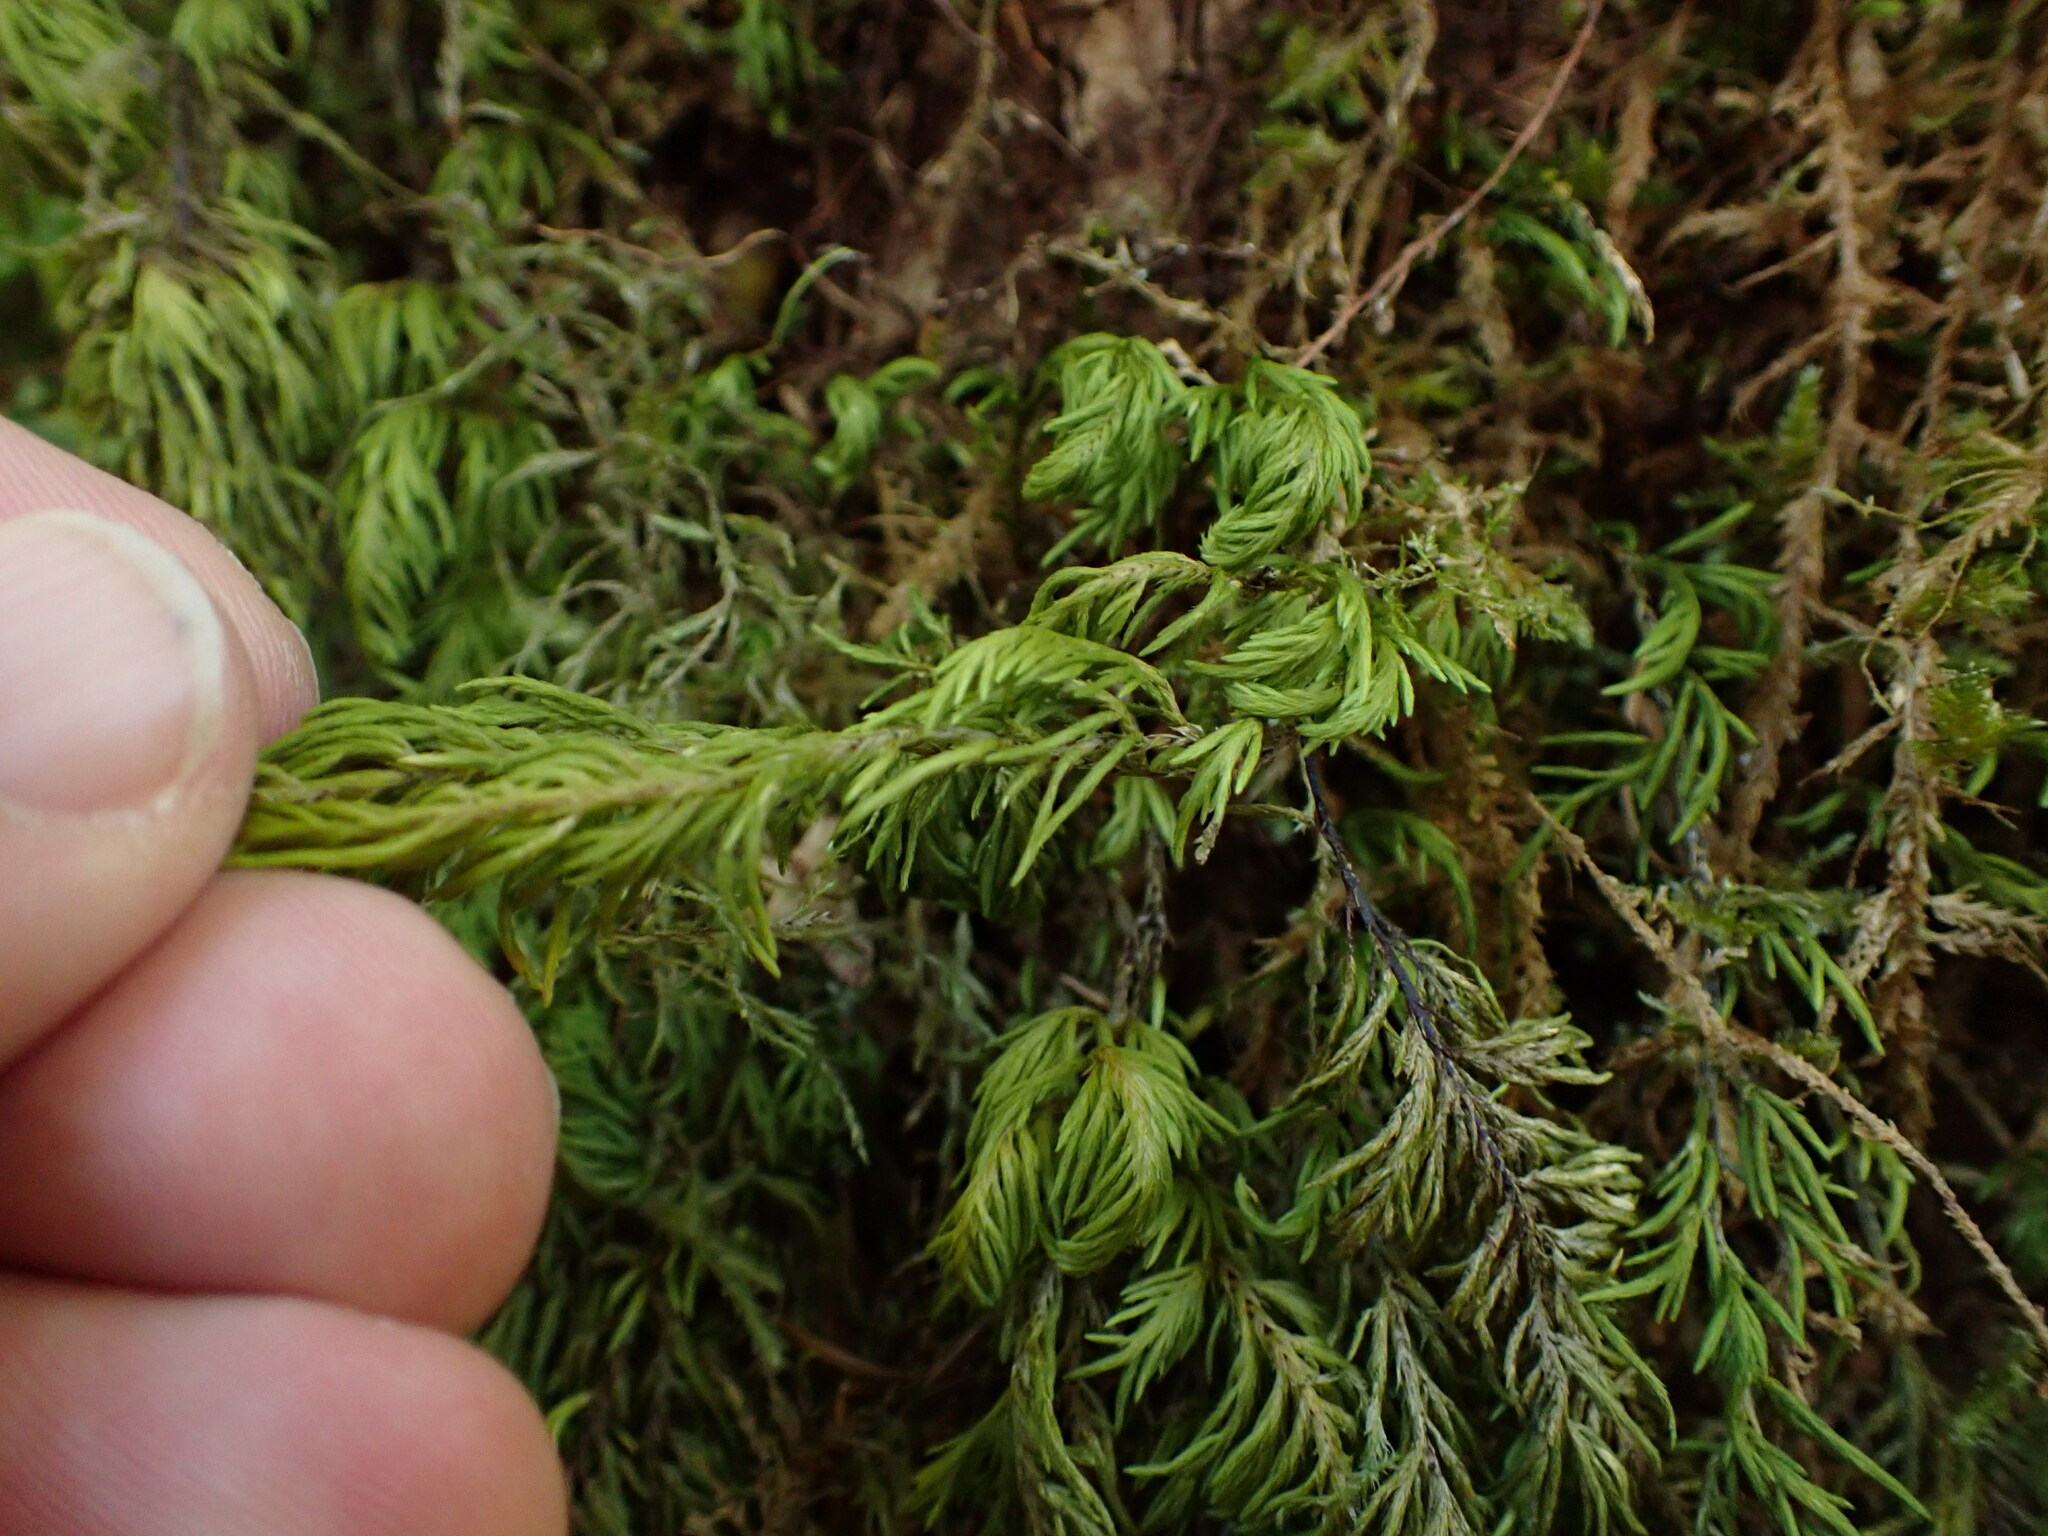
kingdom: Plantae
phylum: Bryophyta
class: Bryopsida
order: Hypnales
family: Cryphaeaceae
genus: Dendroalsia
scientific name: Dendroalsia abietina
